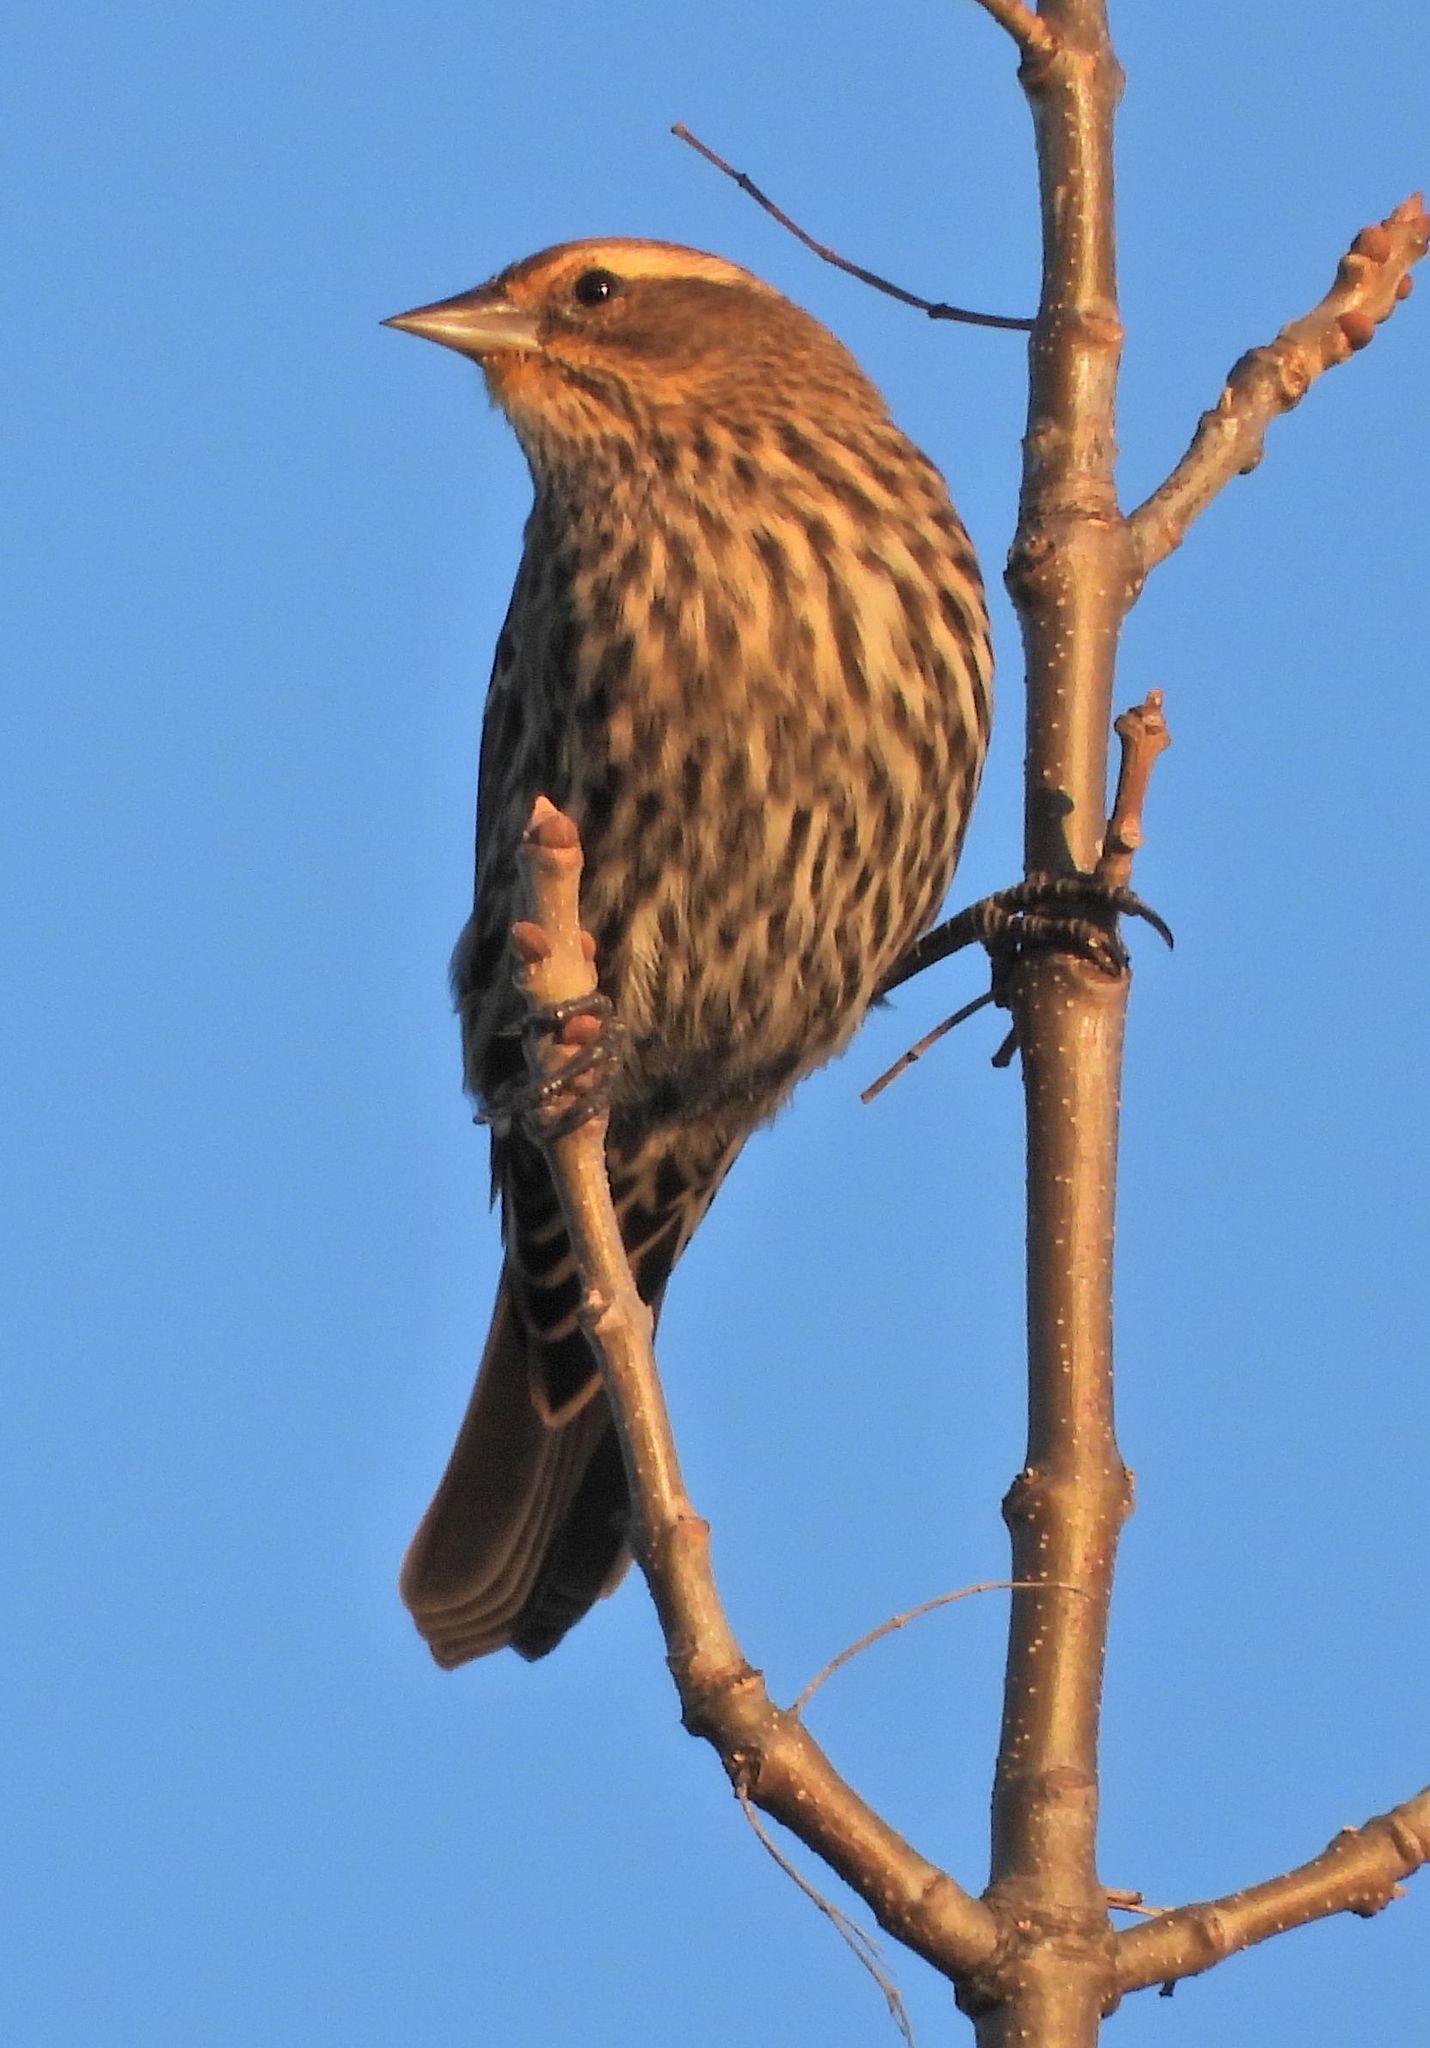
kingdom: Animalia
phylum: Chordata
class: Aves
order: Passeriformes
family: Icteridae
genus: Agelaius
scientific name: Agelaius phoeniceus
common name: Red-winged blackbird
